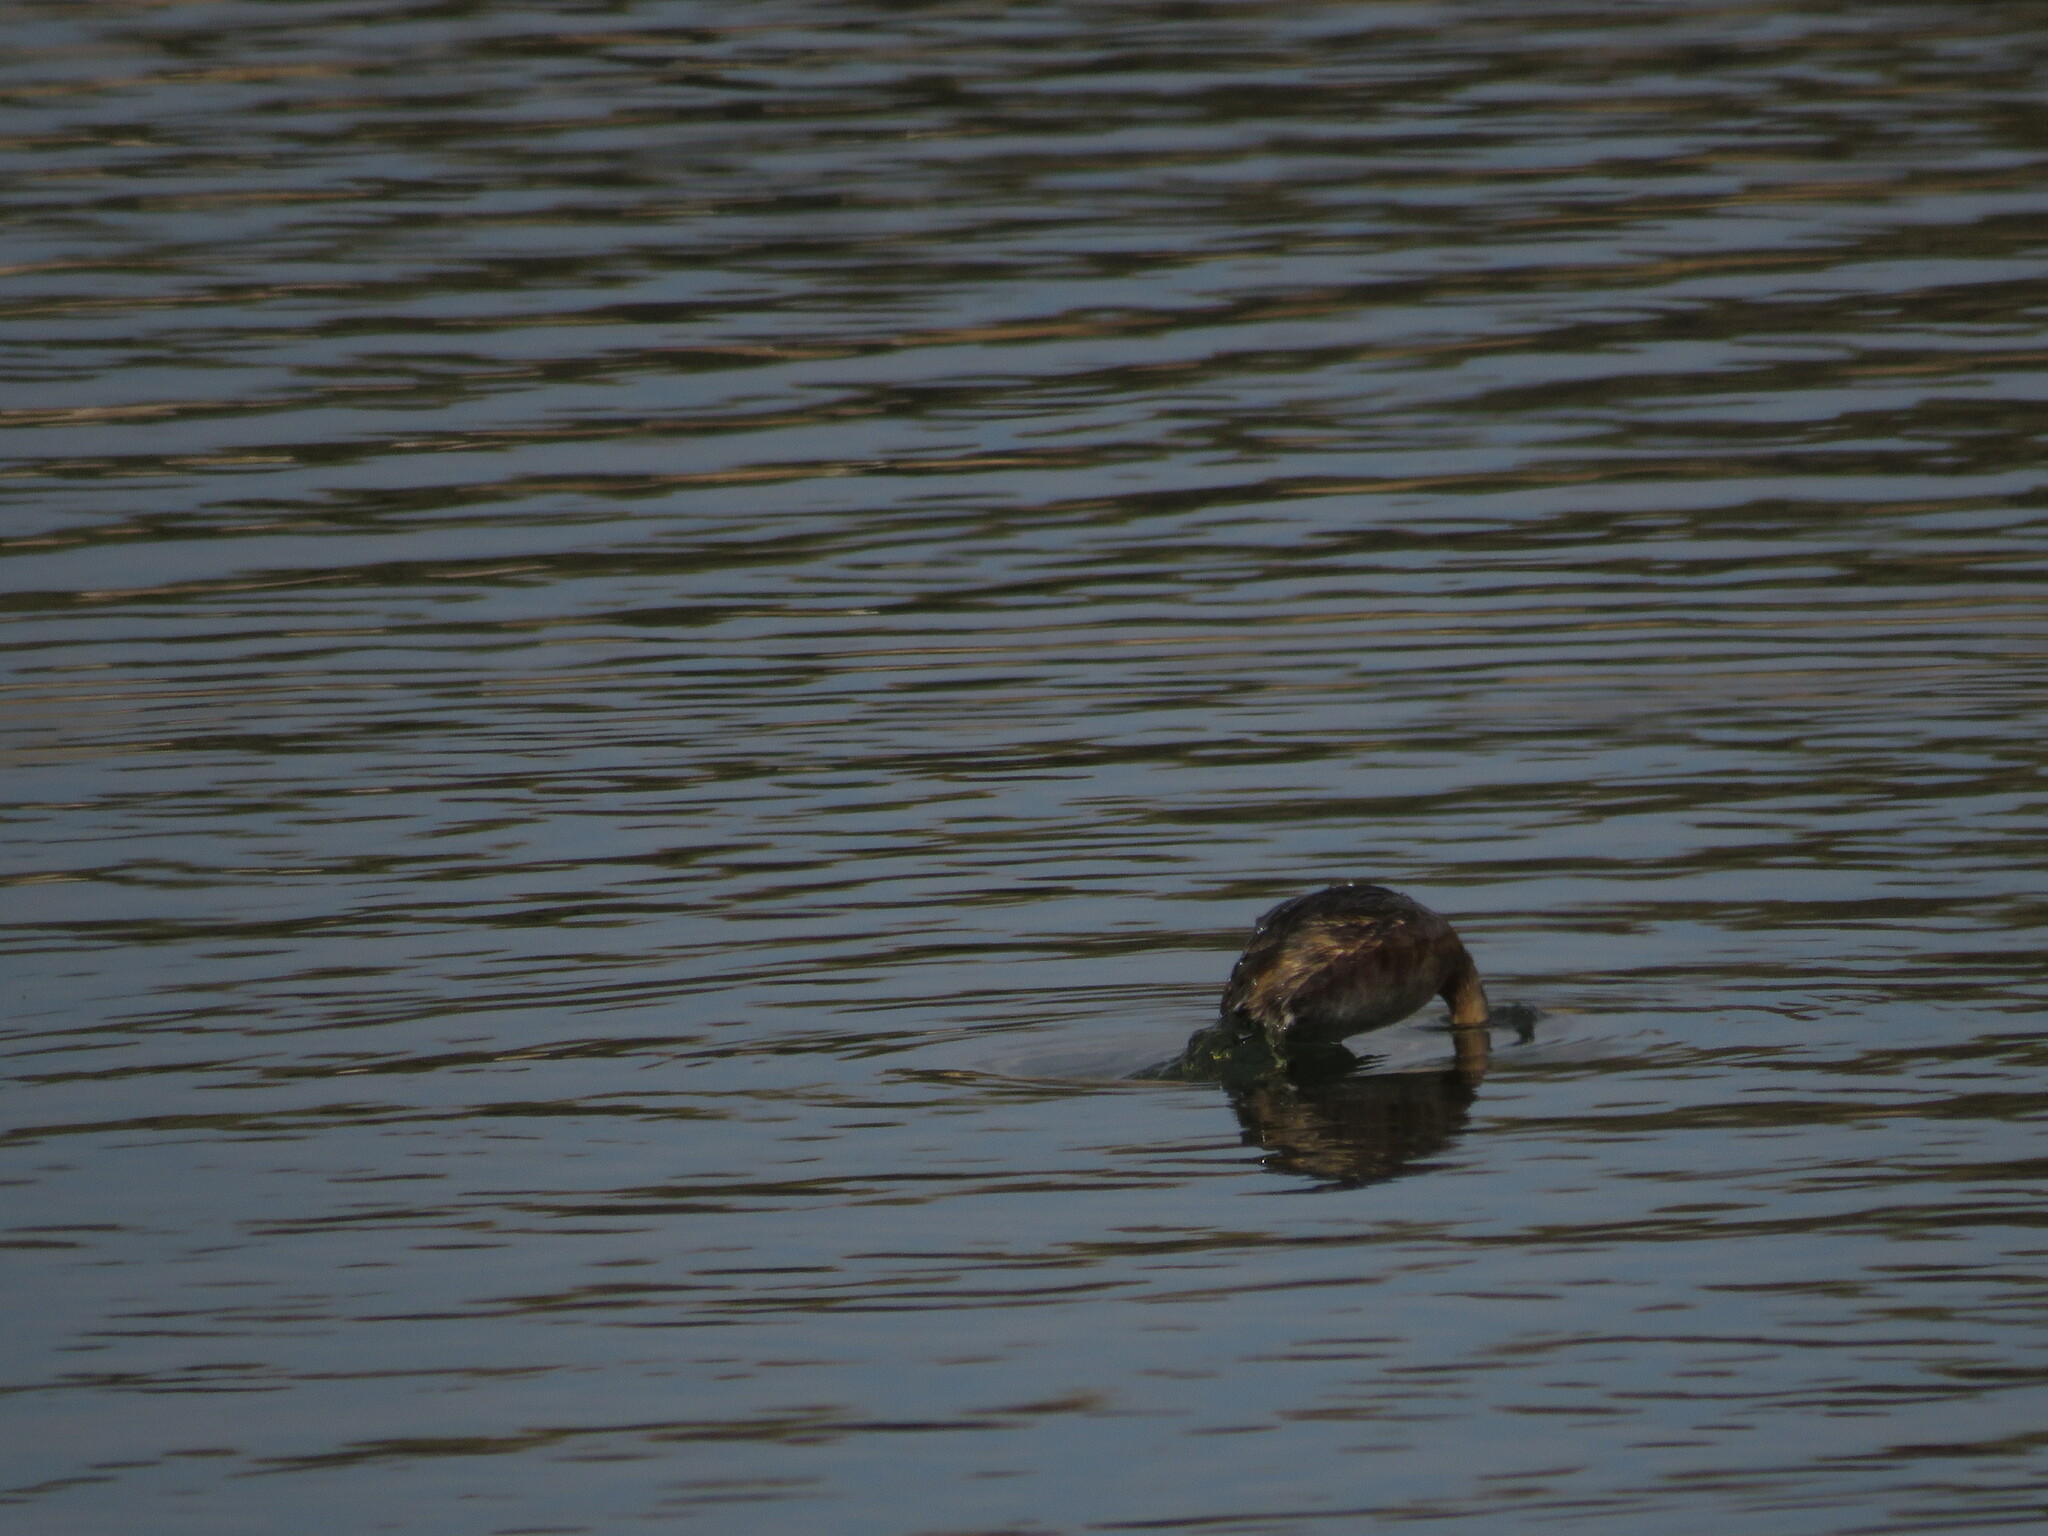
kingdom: Animalia
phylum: Chordata
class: Aves
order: Podicipediformes
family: Podicipedidae
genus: Rollandia
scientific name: Rollandia rolland
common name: White-tufted grebe
